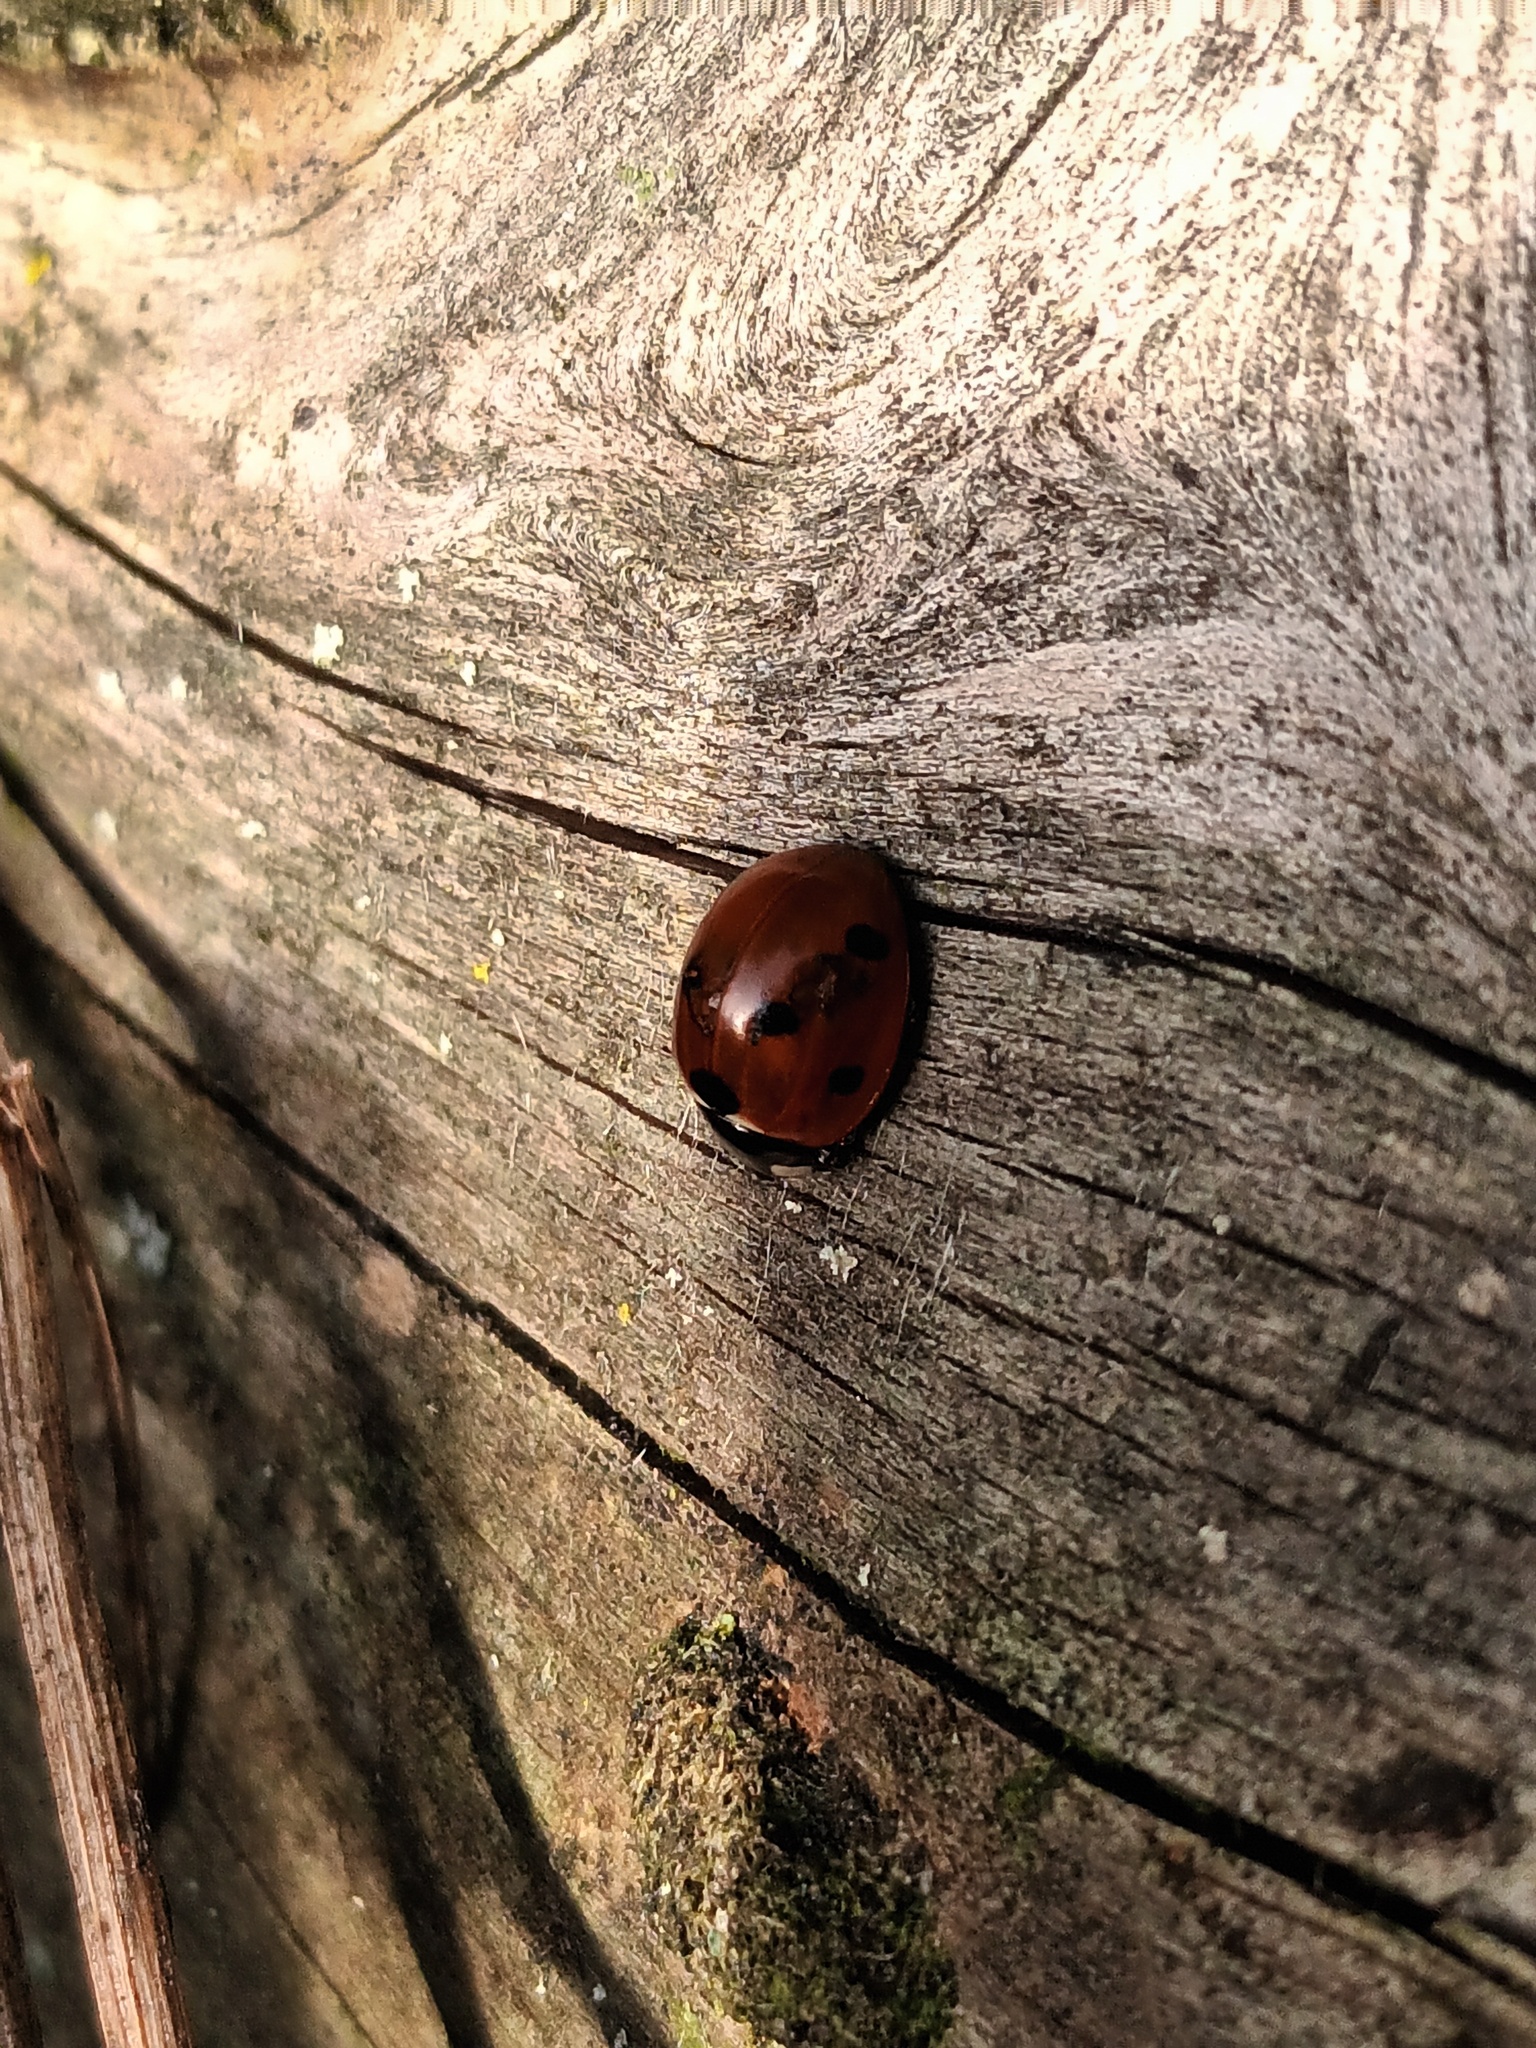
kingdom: Animalia
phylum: Arthropoda
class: Insecta
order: Coleoptera
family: Coccinellidae
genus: Coccinella
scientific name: Coccinella septempunctata
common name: Sevenspotted lady beetle
